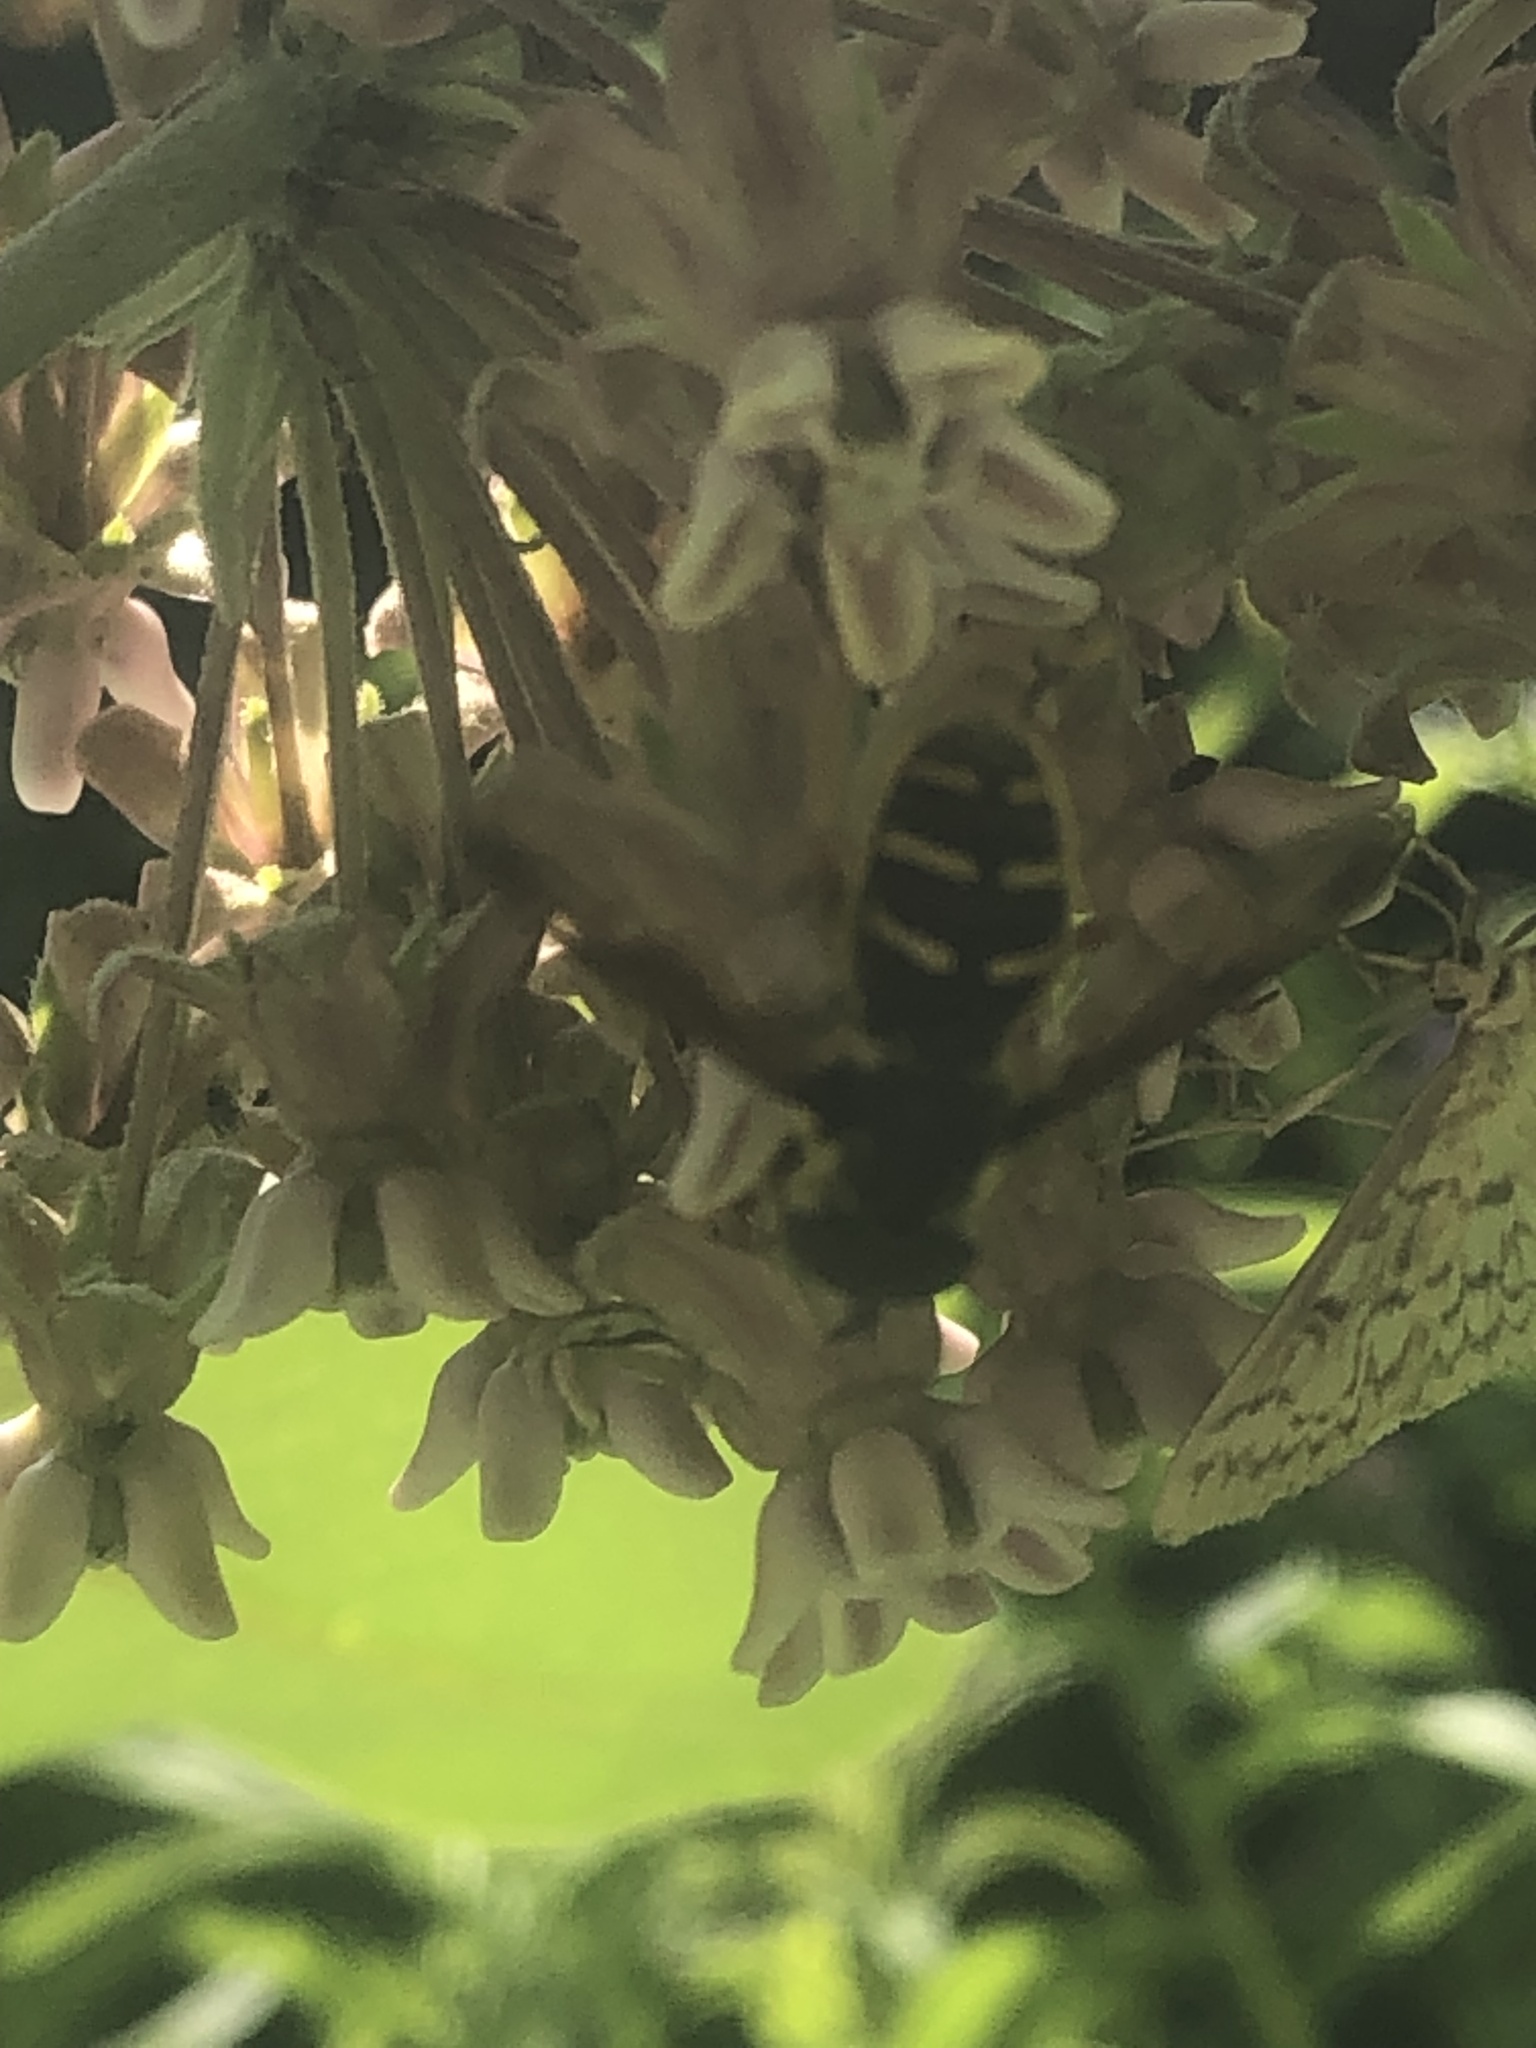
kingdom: Animalia
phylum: Arthropoda
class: Insecta
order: Diptera
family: Syrphidae
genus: Sericomyia
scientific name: Sericomyia chrysotoxoides
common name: Oblique-banded pond fly
